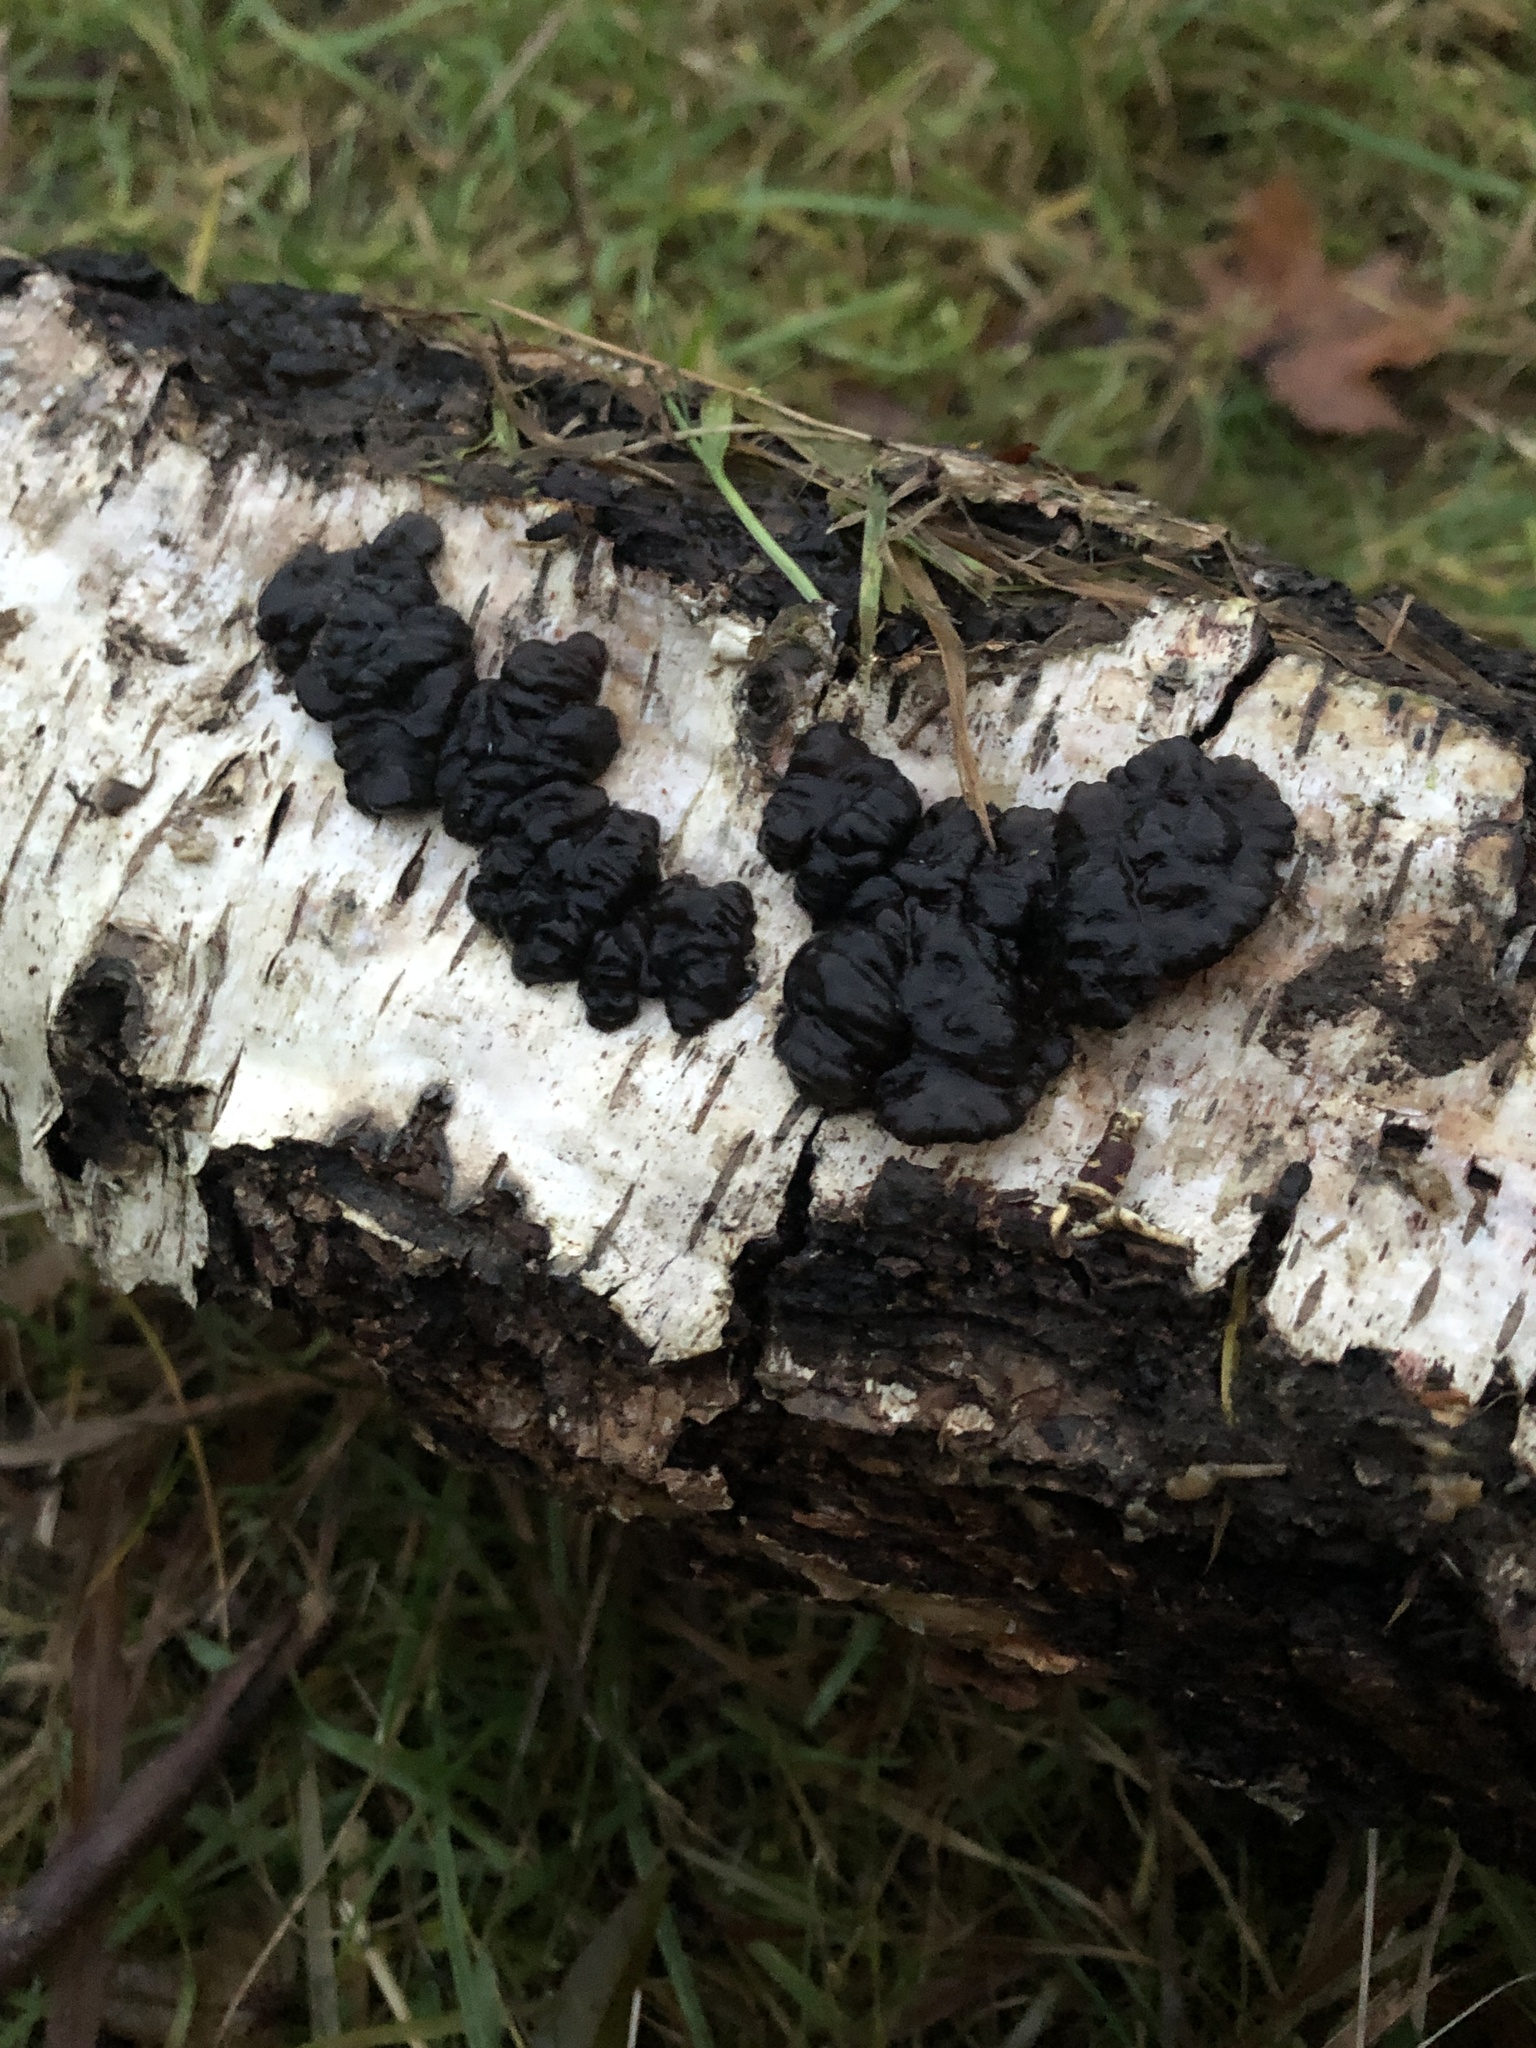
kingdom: Fungi
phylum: Basidiomycota
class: Agaricomycetes
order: Auriculariales
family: Auriculariaceae
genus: Exidia
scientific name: Exidia glandulosa
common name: Witches' butter
